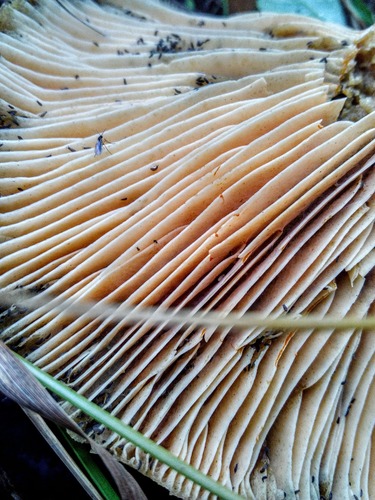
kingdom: Fungi
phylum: Basidiomycota
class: Agaricomycetes
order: Russulales
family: Russulaceae
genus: Lactarius
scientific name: Lactarius deterrimus
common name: False saffron milkcap
